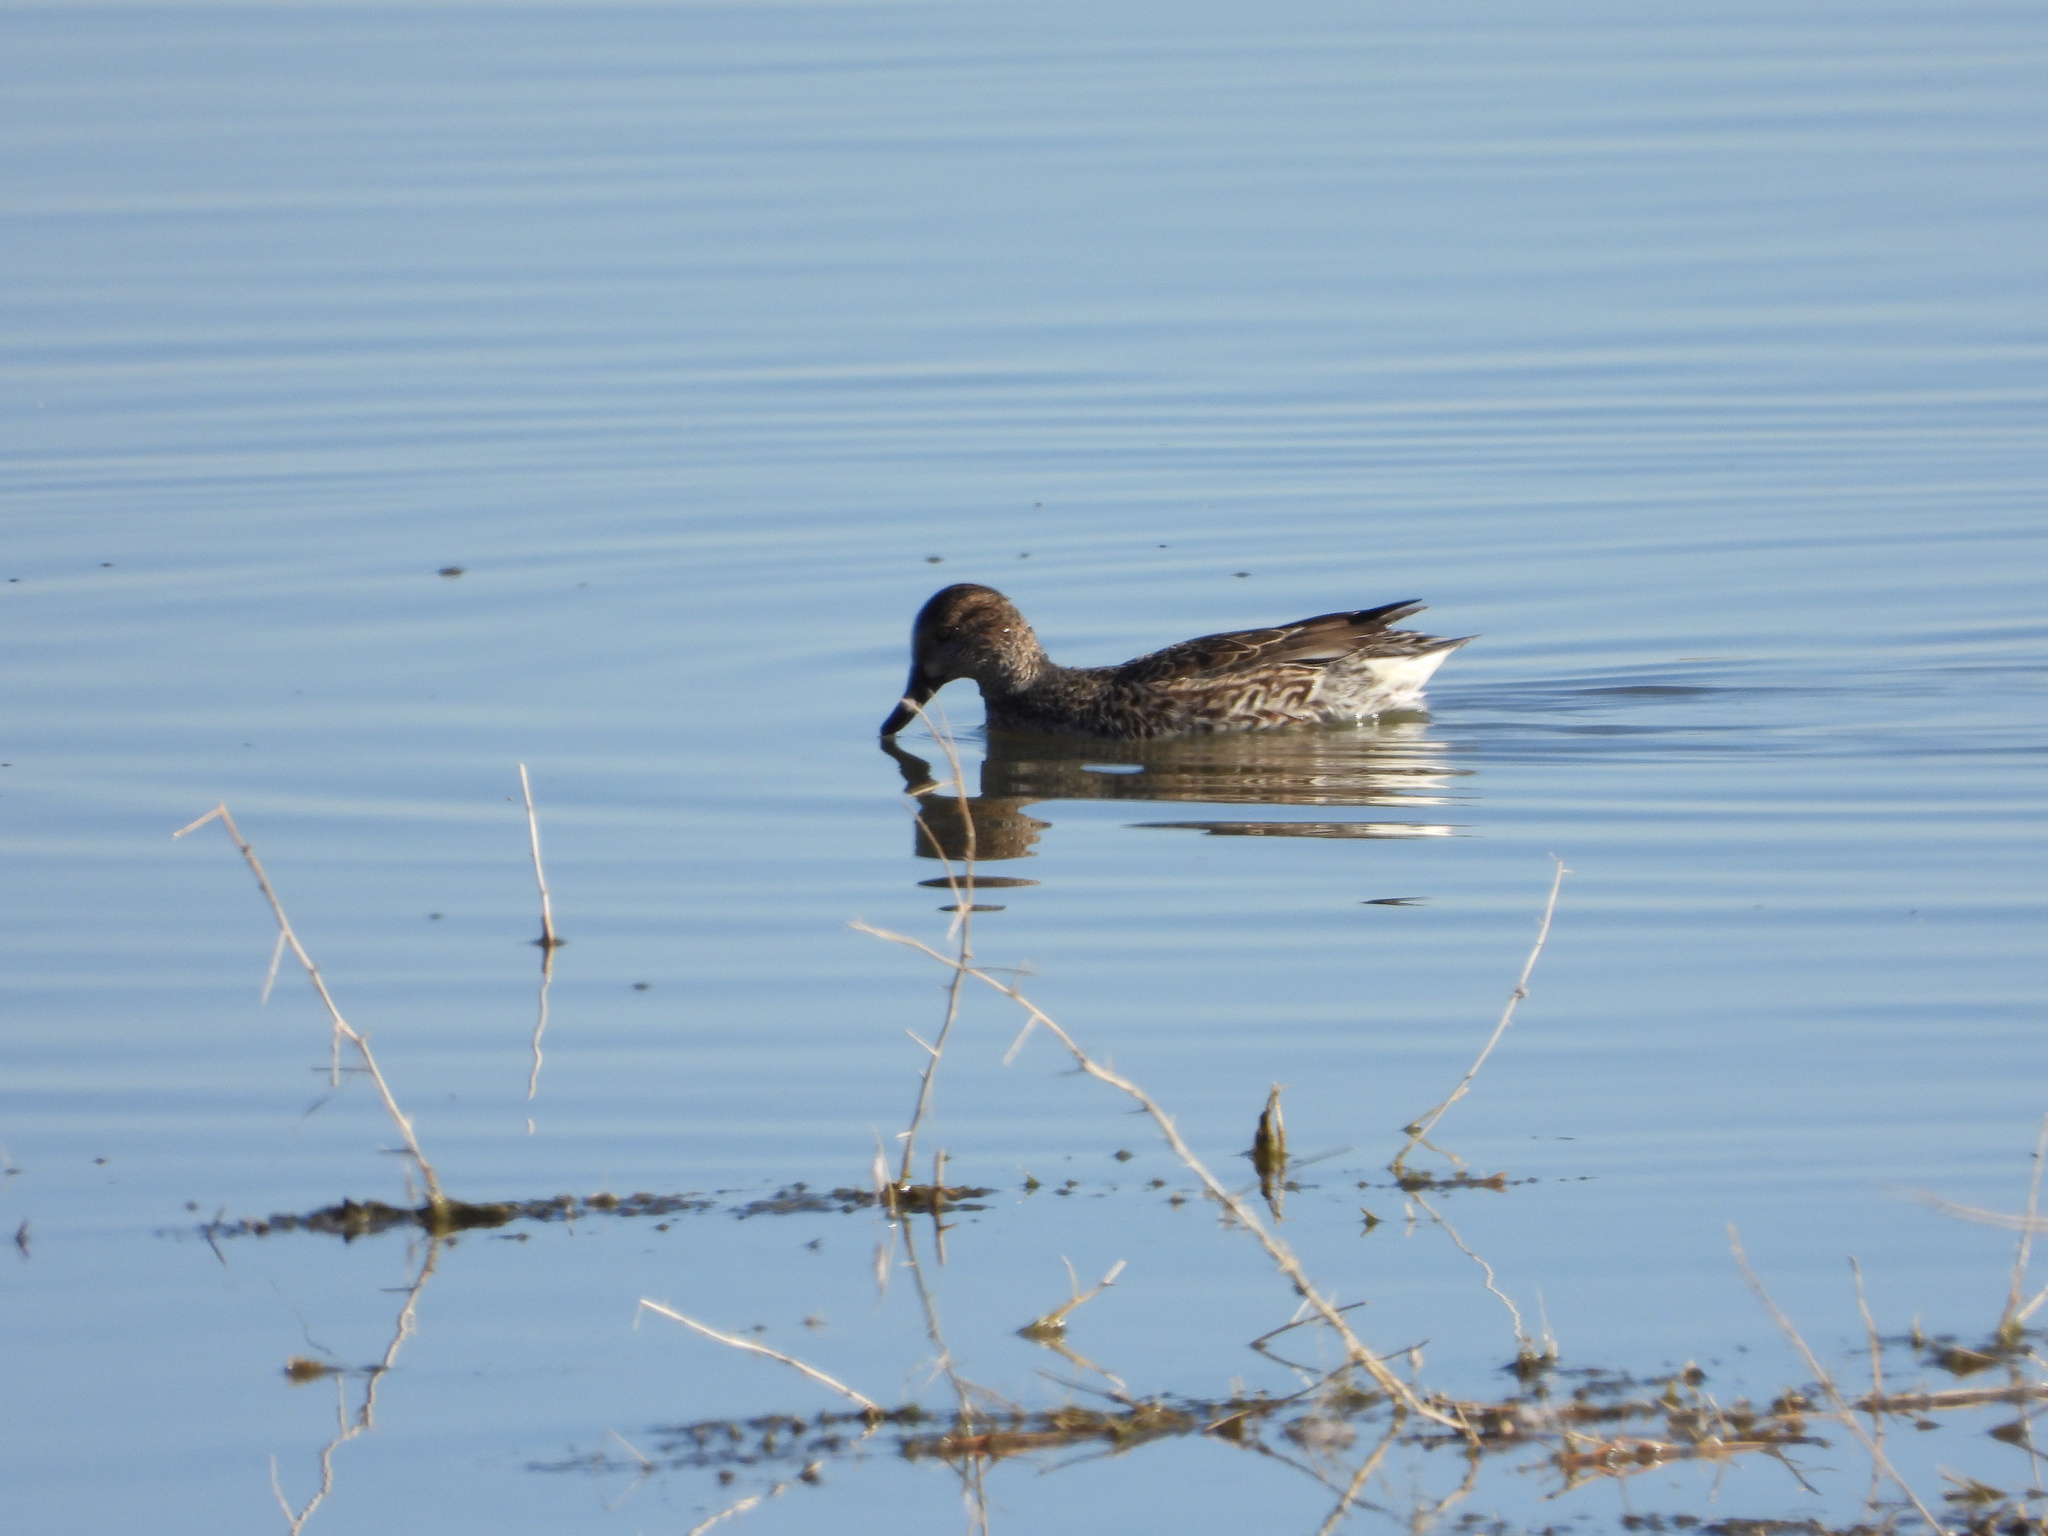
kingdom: Animalia
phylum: Chordata
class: Aves
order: Anseriformes
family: Anatidae
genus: Anas
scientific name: Anas crecca
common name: Eurasian teal
